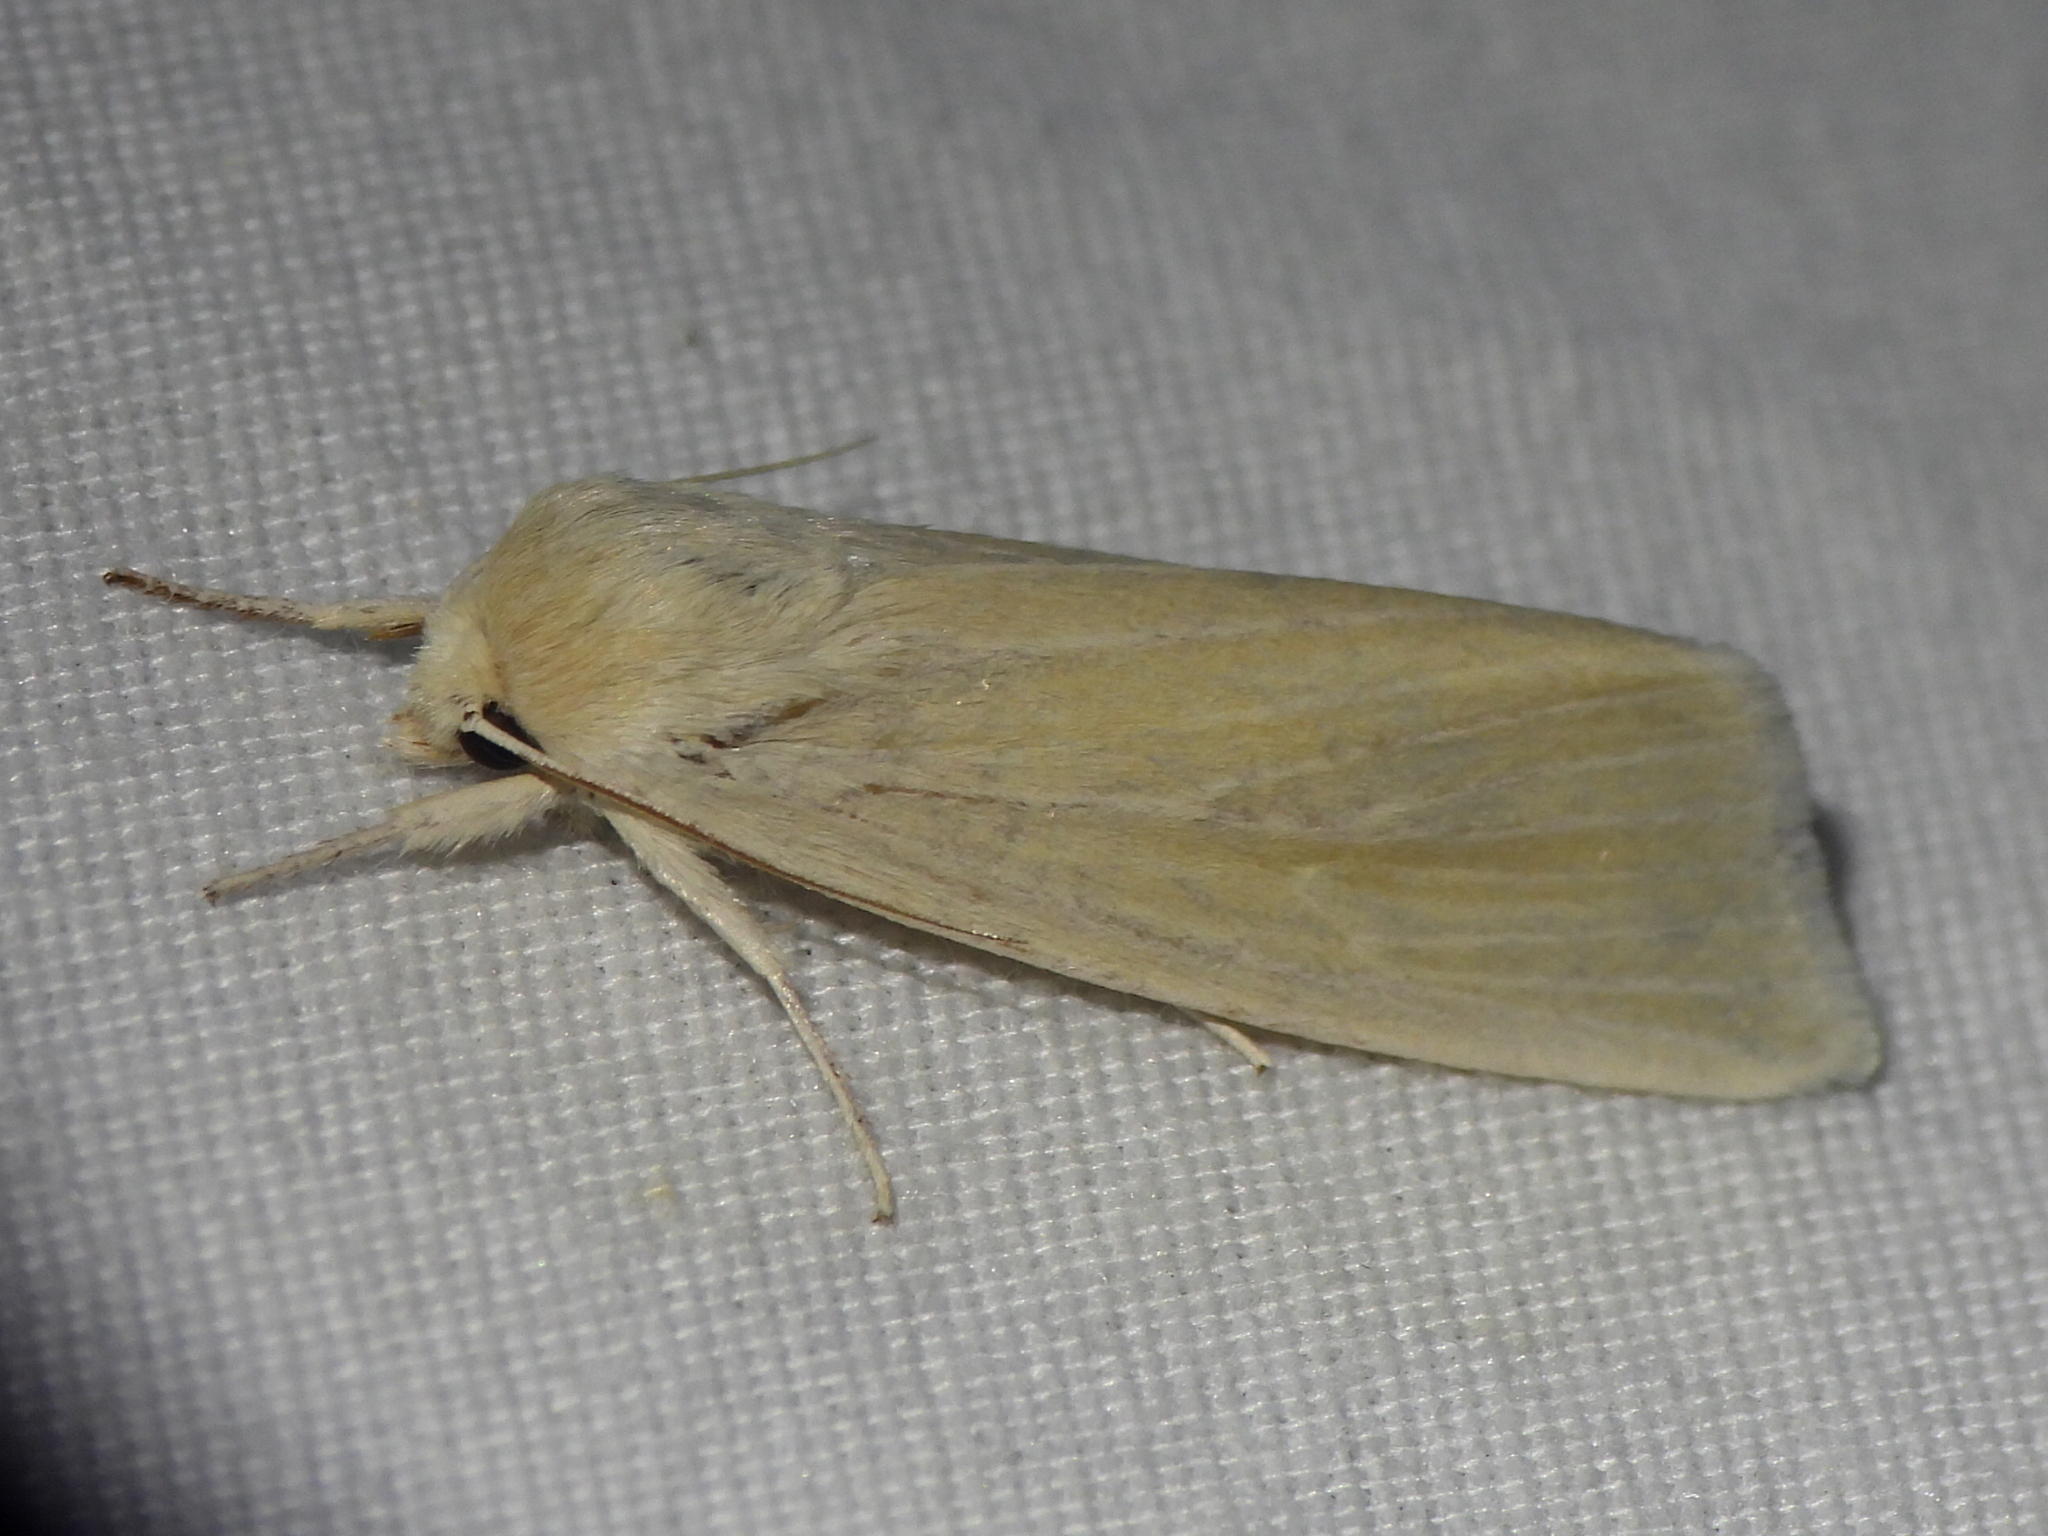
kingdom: Animalia
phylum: Arthropoda
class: Insecta
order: Lepidoptera
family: Noctuidae
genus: Acronicta
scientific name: Acronicta insularis
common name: Henry's marsh moth
